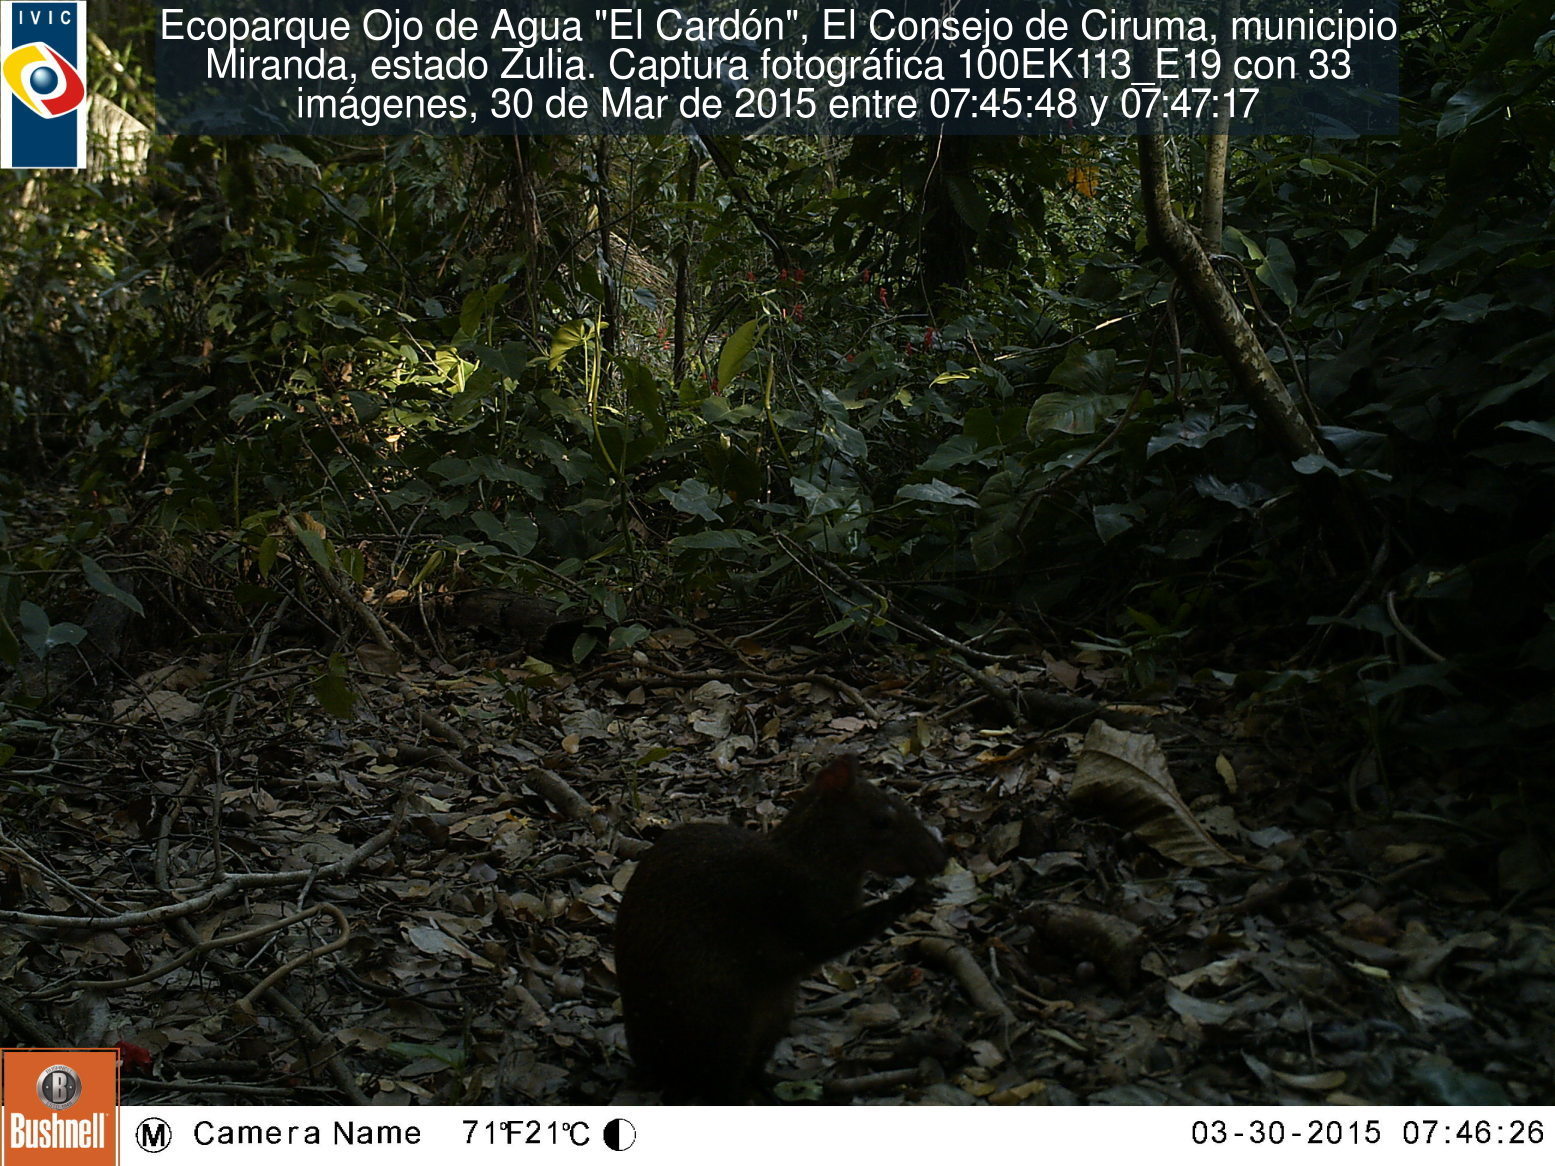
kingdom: Animalia
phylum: Chordata
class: Mammalia
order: Rodentia
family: Dasyproctidae
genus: Dasyprocta
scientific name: Dasyprocta punctata
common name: Central american agouti
